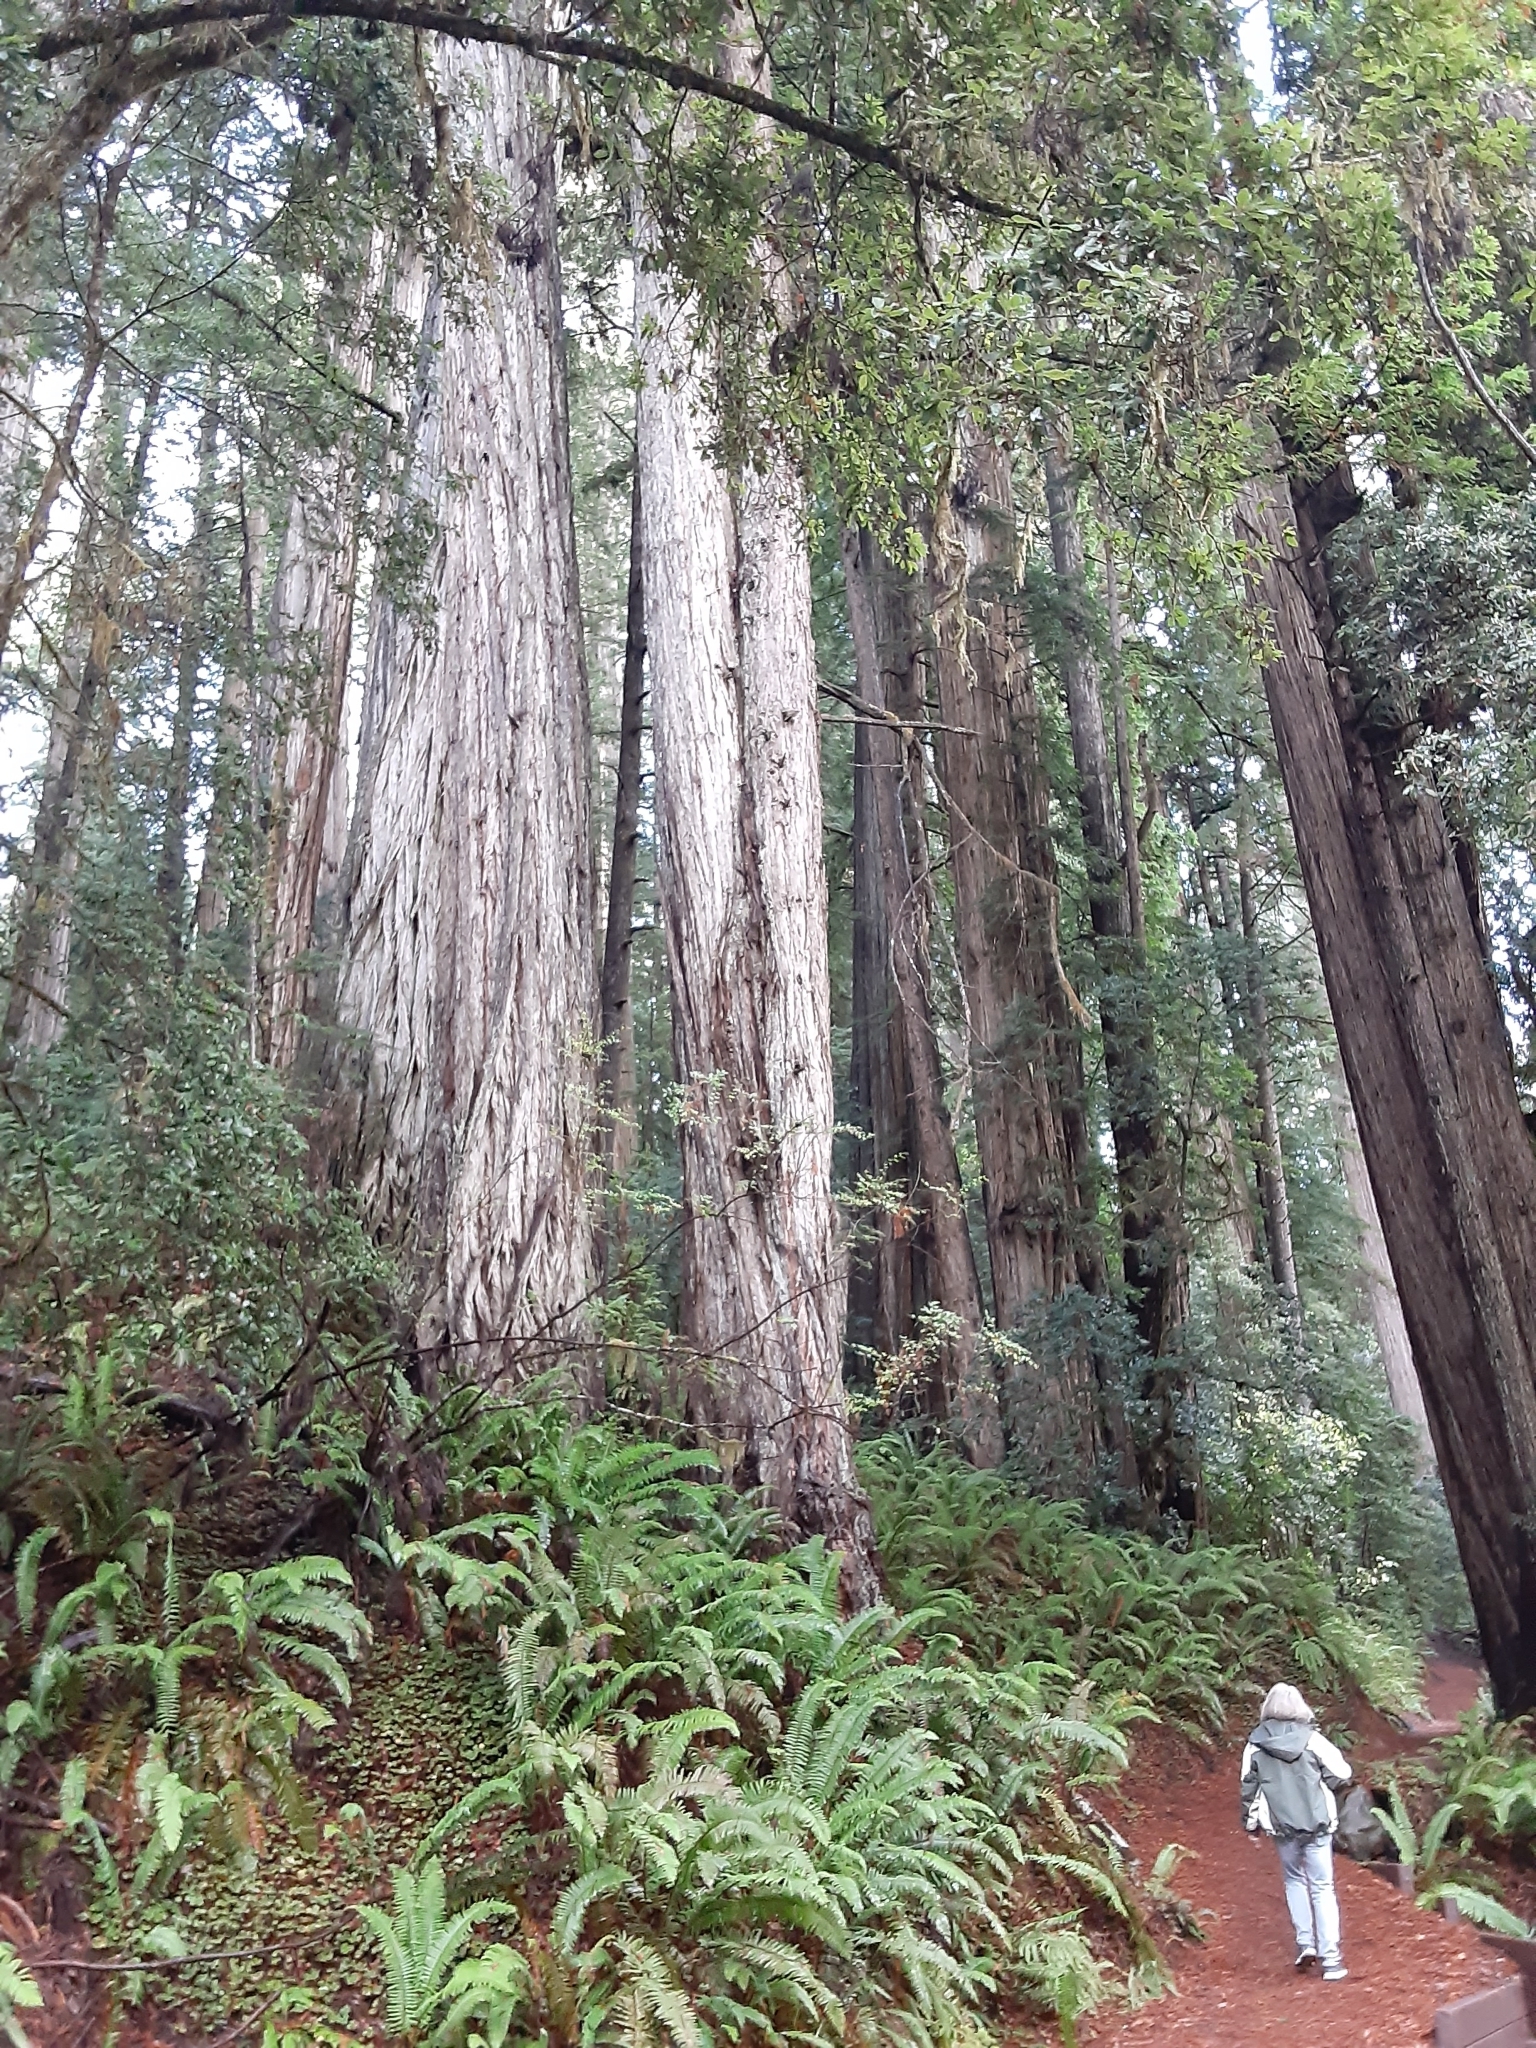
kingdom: Plantae
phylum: Tracheophyta
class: Pinopsida
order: Pinales
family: Cupressaceae
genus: Sequoia
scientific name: Sequoia sempervirens
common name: Coast redwood
